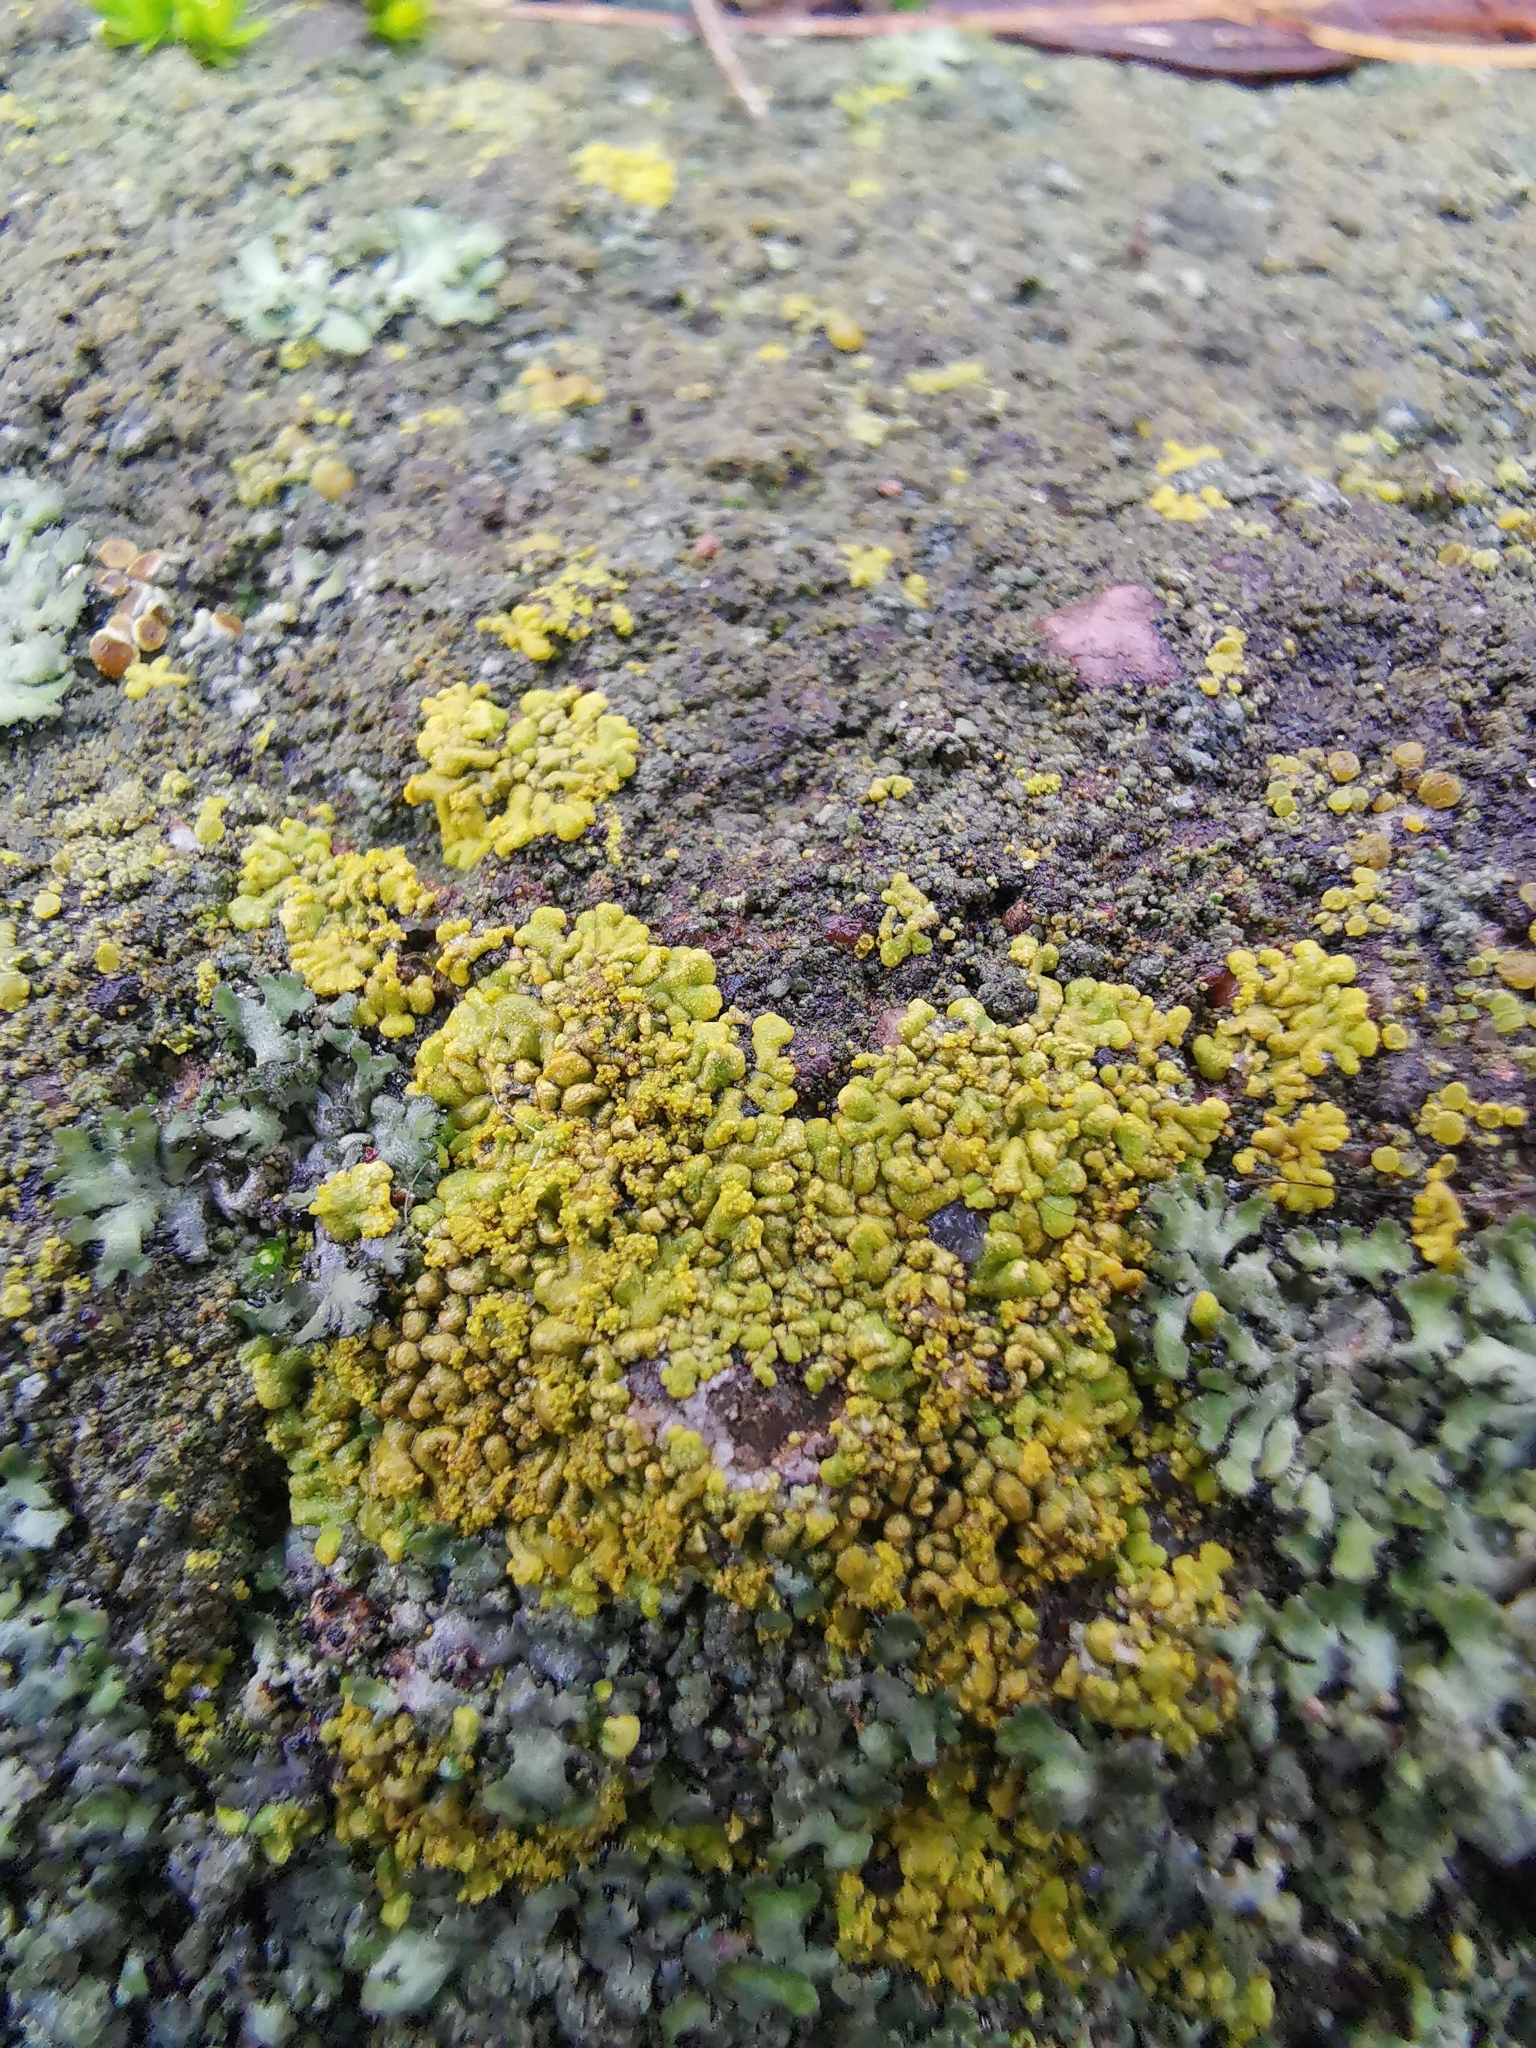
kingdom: Fungi
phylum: Ascomycota
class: Lecanoromycetes
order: Teloschistales
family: Teloschistaceae
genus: Calogaya
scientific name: Calogaya decipiens
